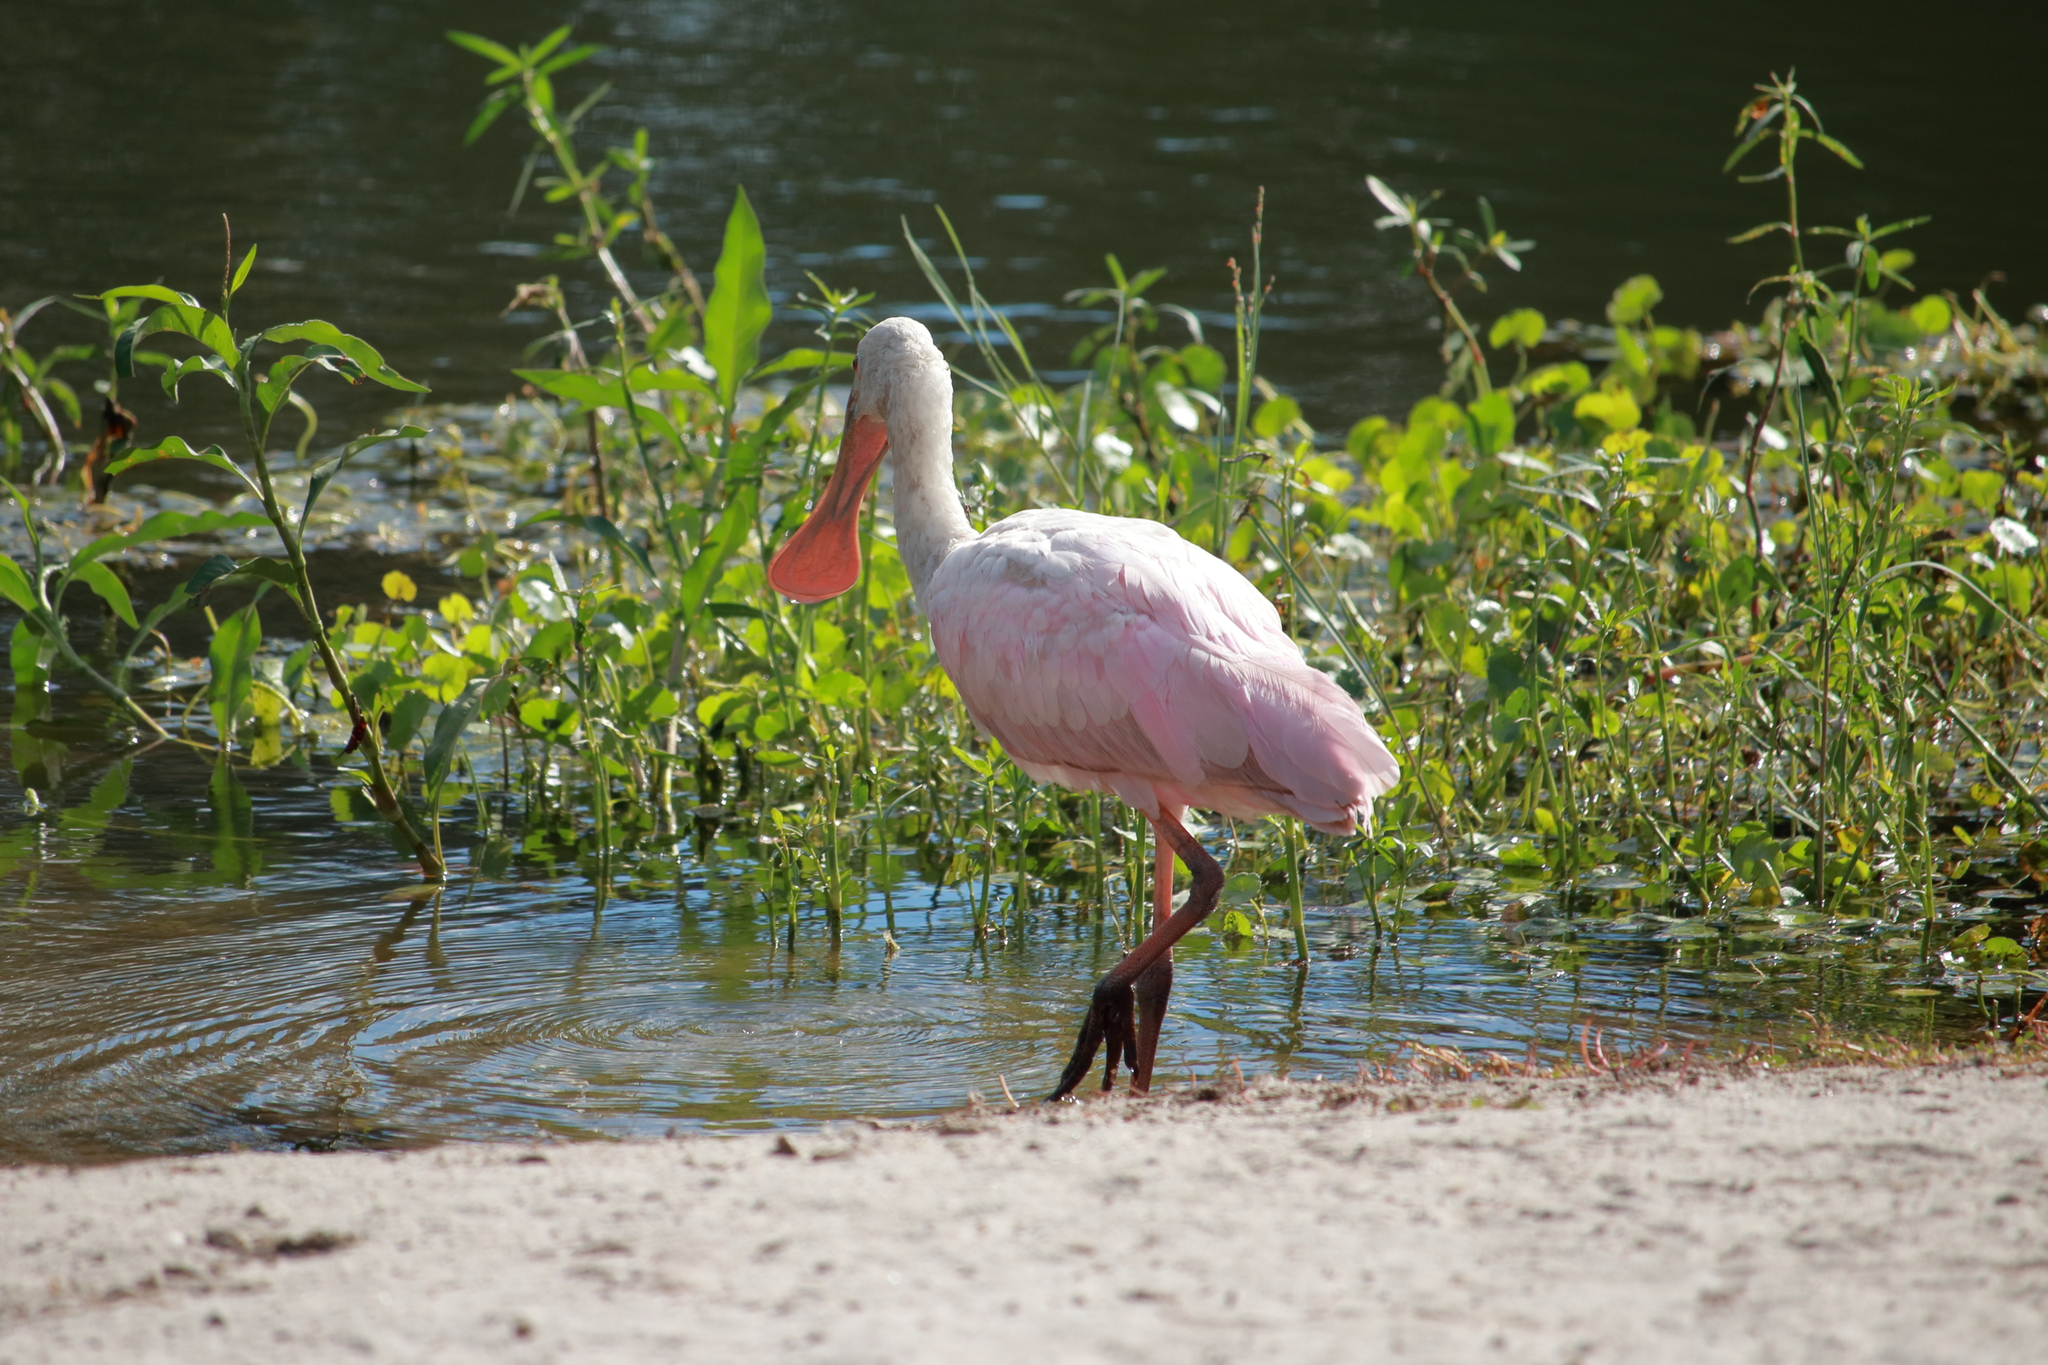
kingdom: Animalia
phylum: Chordata
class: Aves
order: Pelecaniformes
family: Threskiornithidae
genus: Platalea
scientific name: Platalea ajaja
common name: Roseate spoonbill
